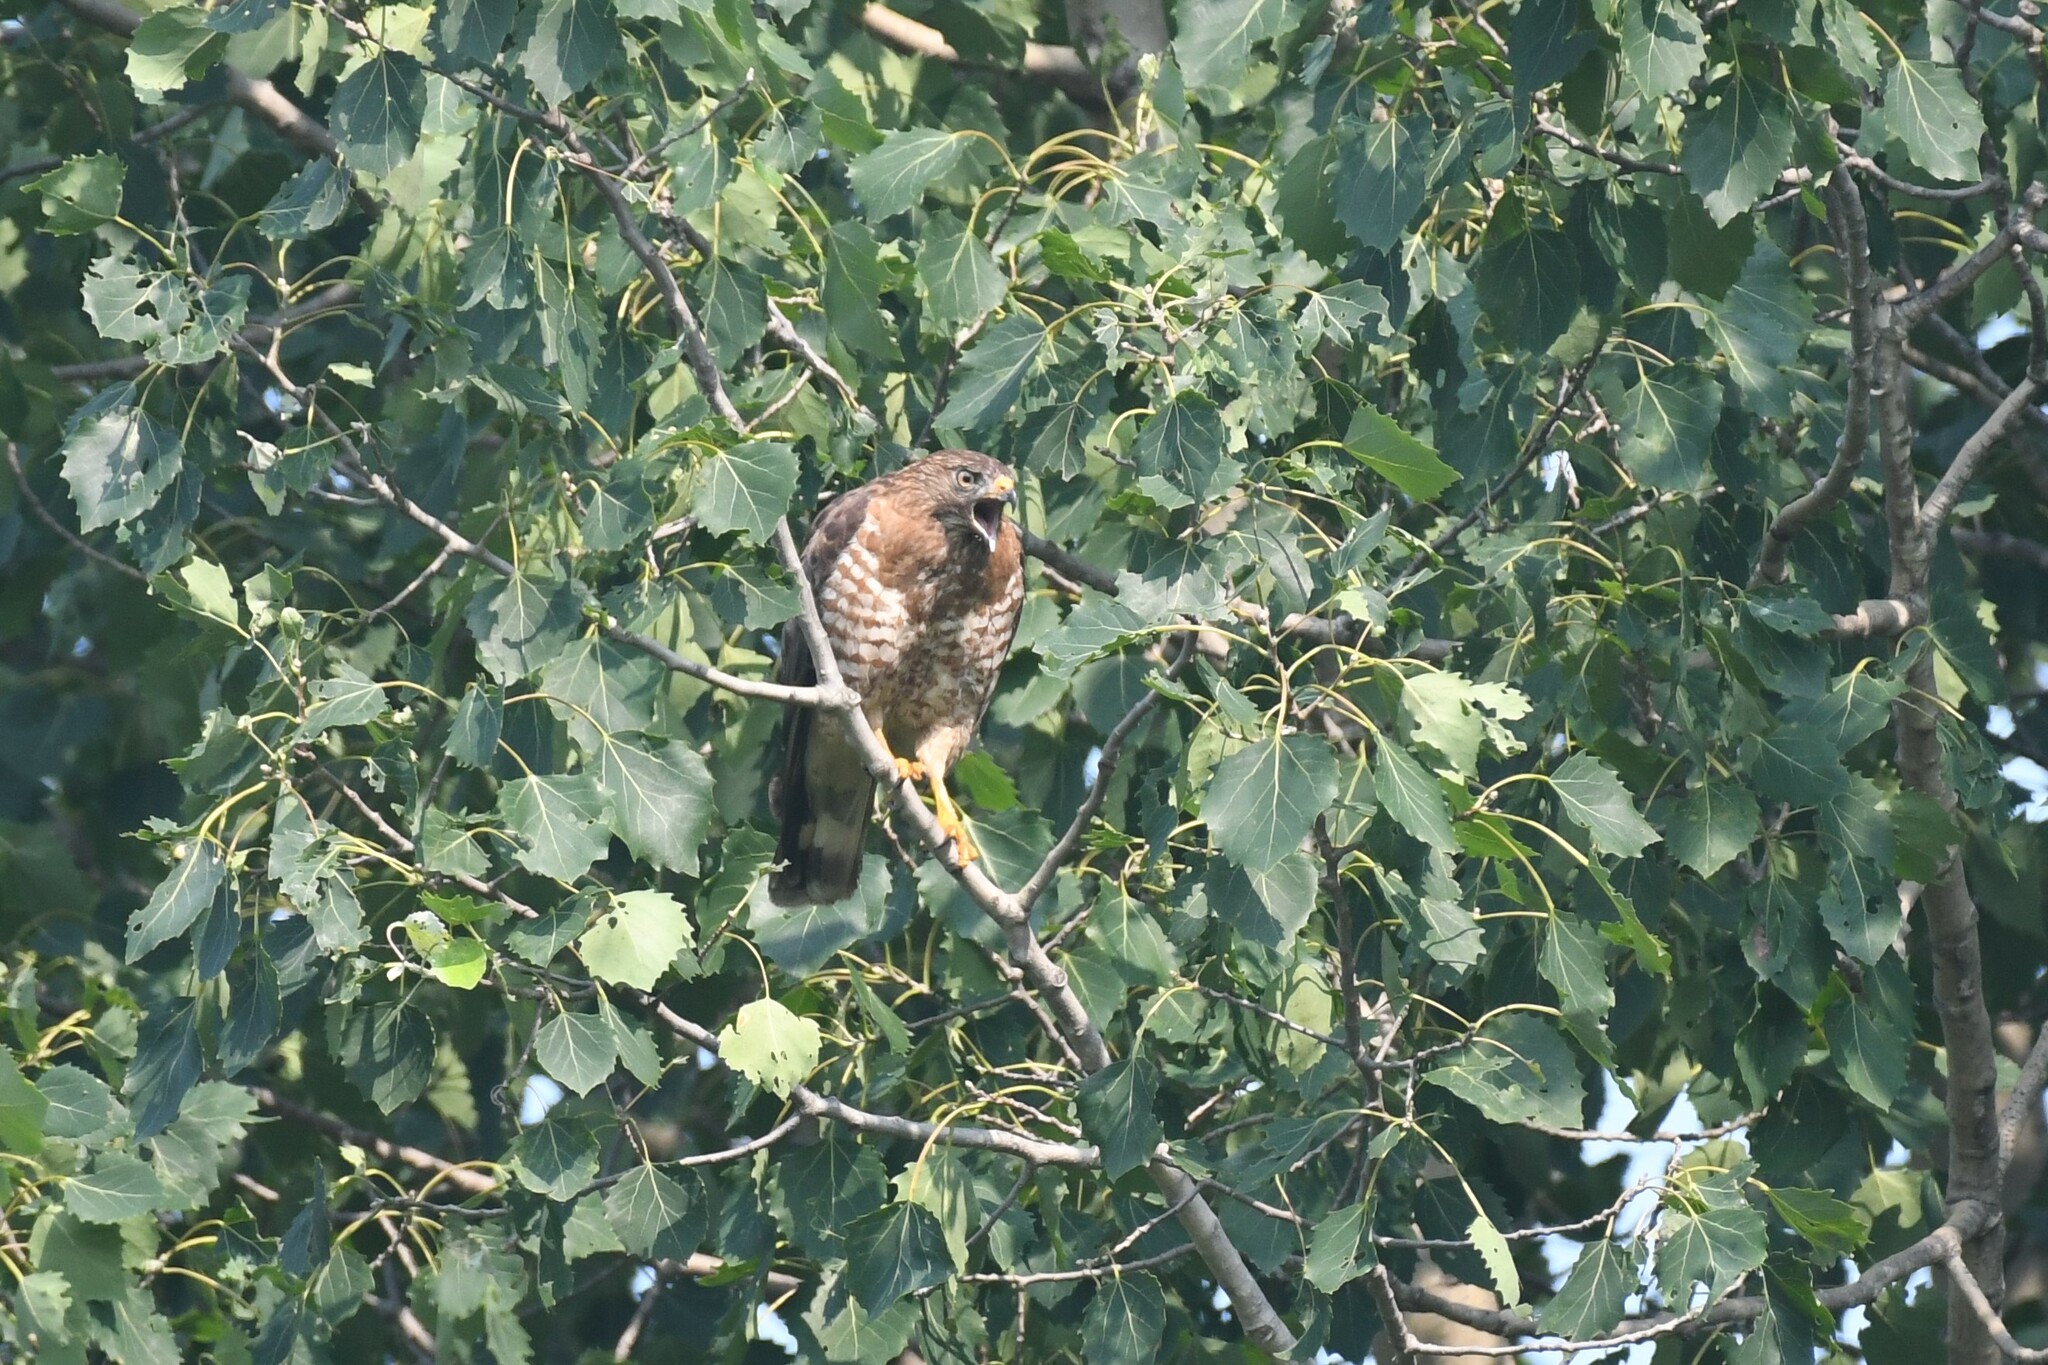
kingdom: Animalia
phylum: Chordata
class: Aves
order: Accipitriformes
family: Accipitridae
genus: Buteo
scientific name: Buteo platypterus
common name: Broad-winged hawk
